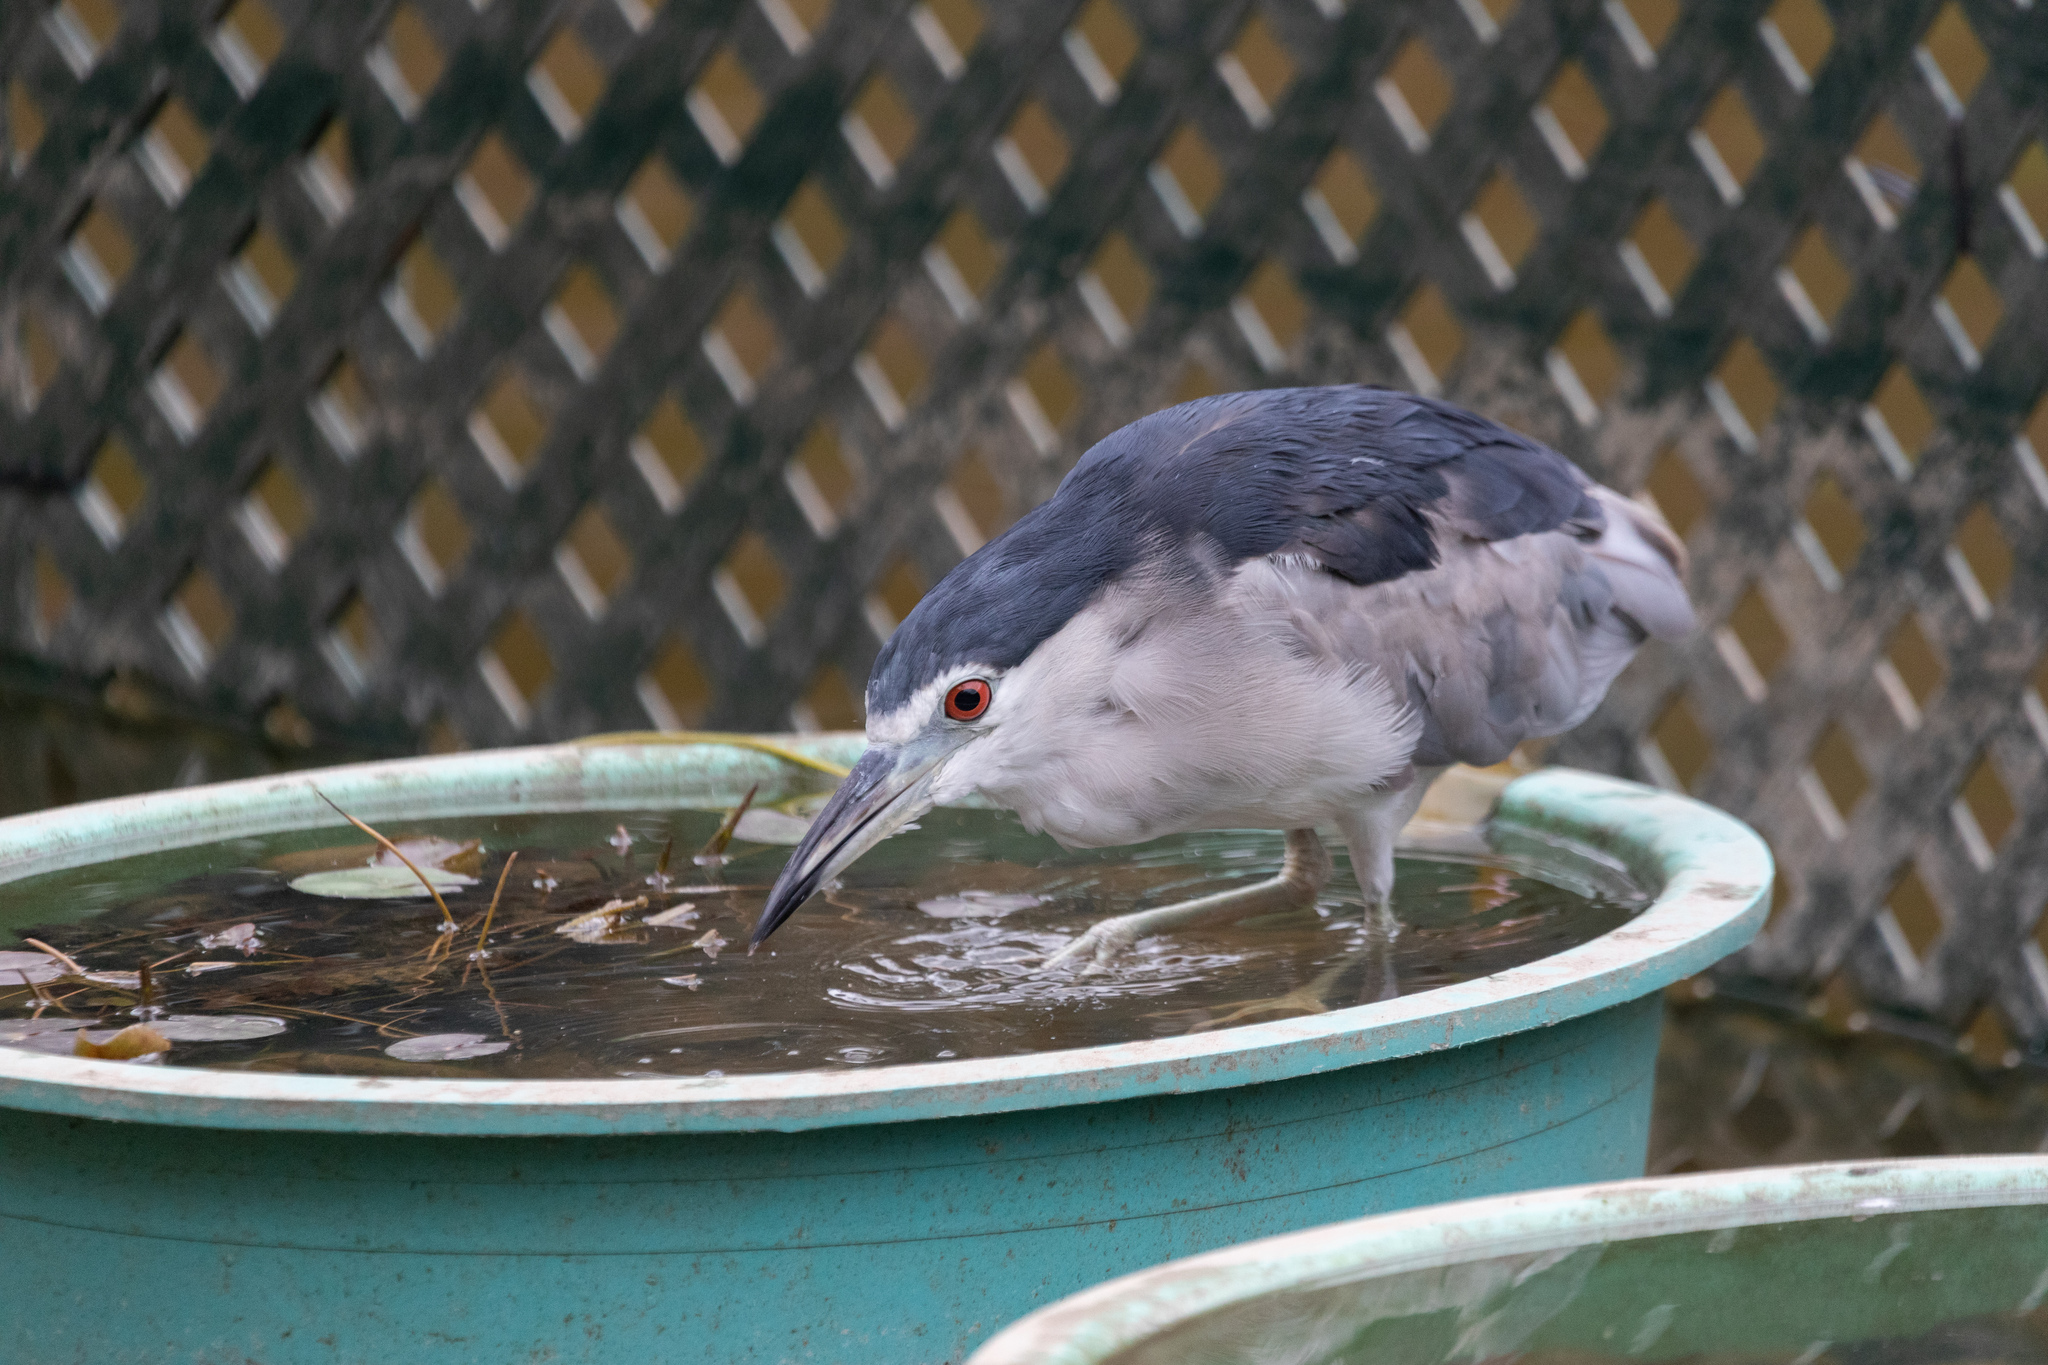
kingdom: Animalia
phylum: Chordata
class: Aves
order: Pelecaniformes
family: Ardeidae
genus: Nycticorax
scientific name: Nycticorax nycticorax
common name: Black-crowned night heron
